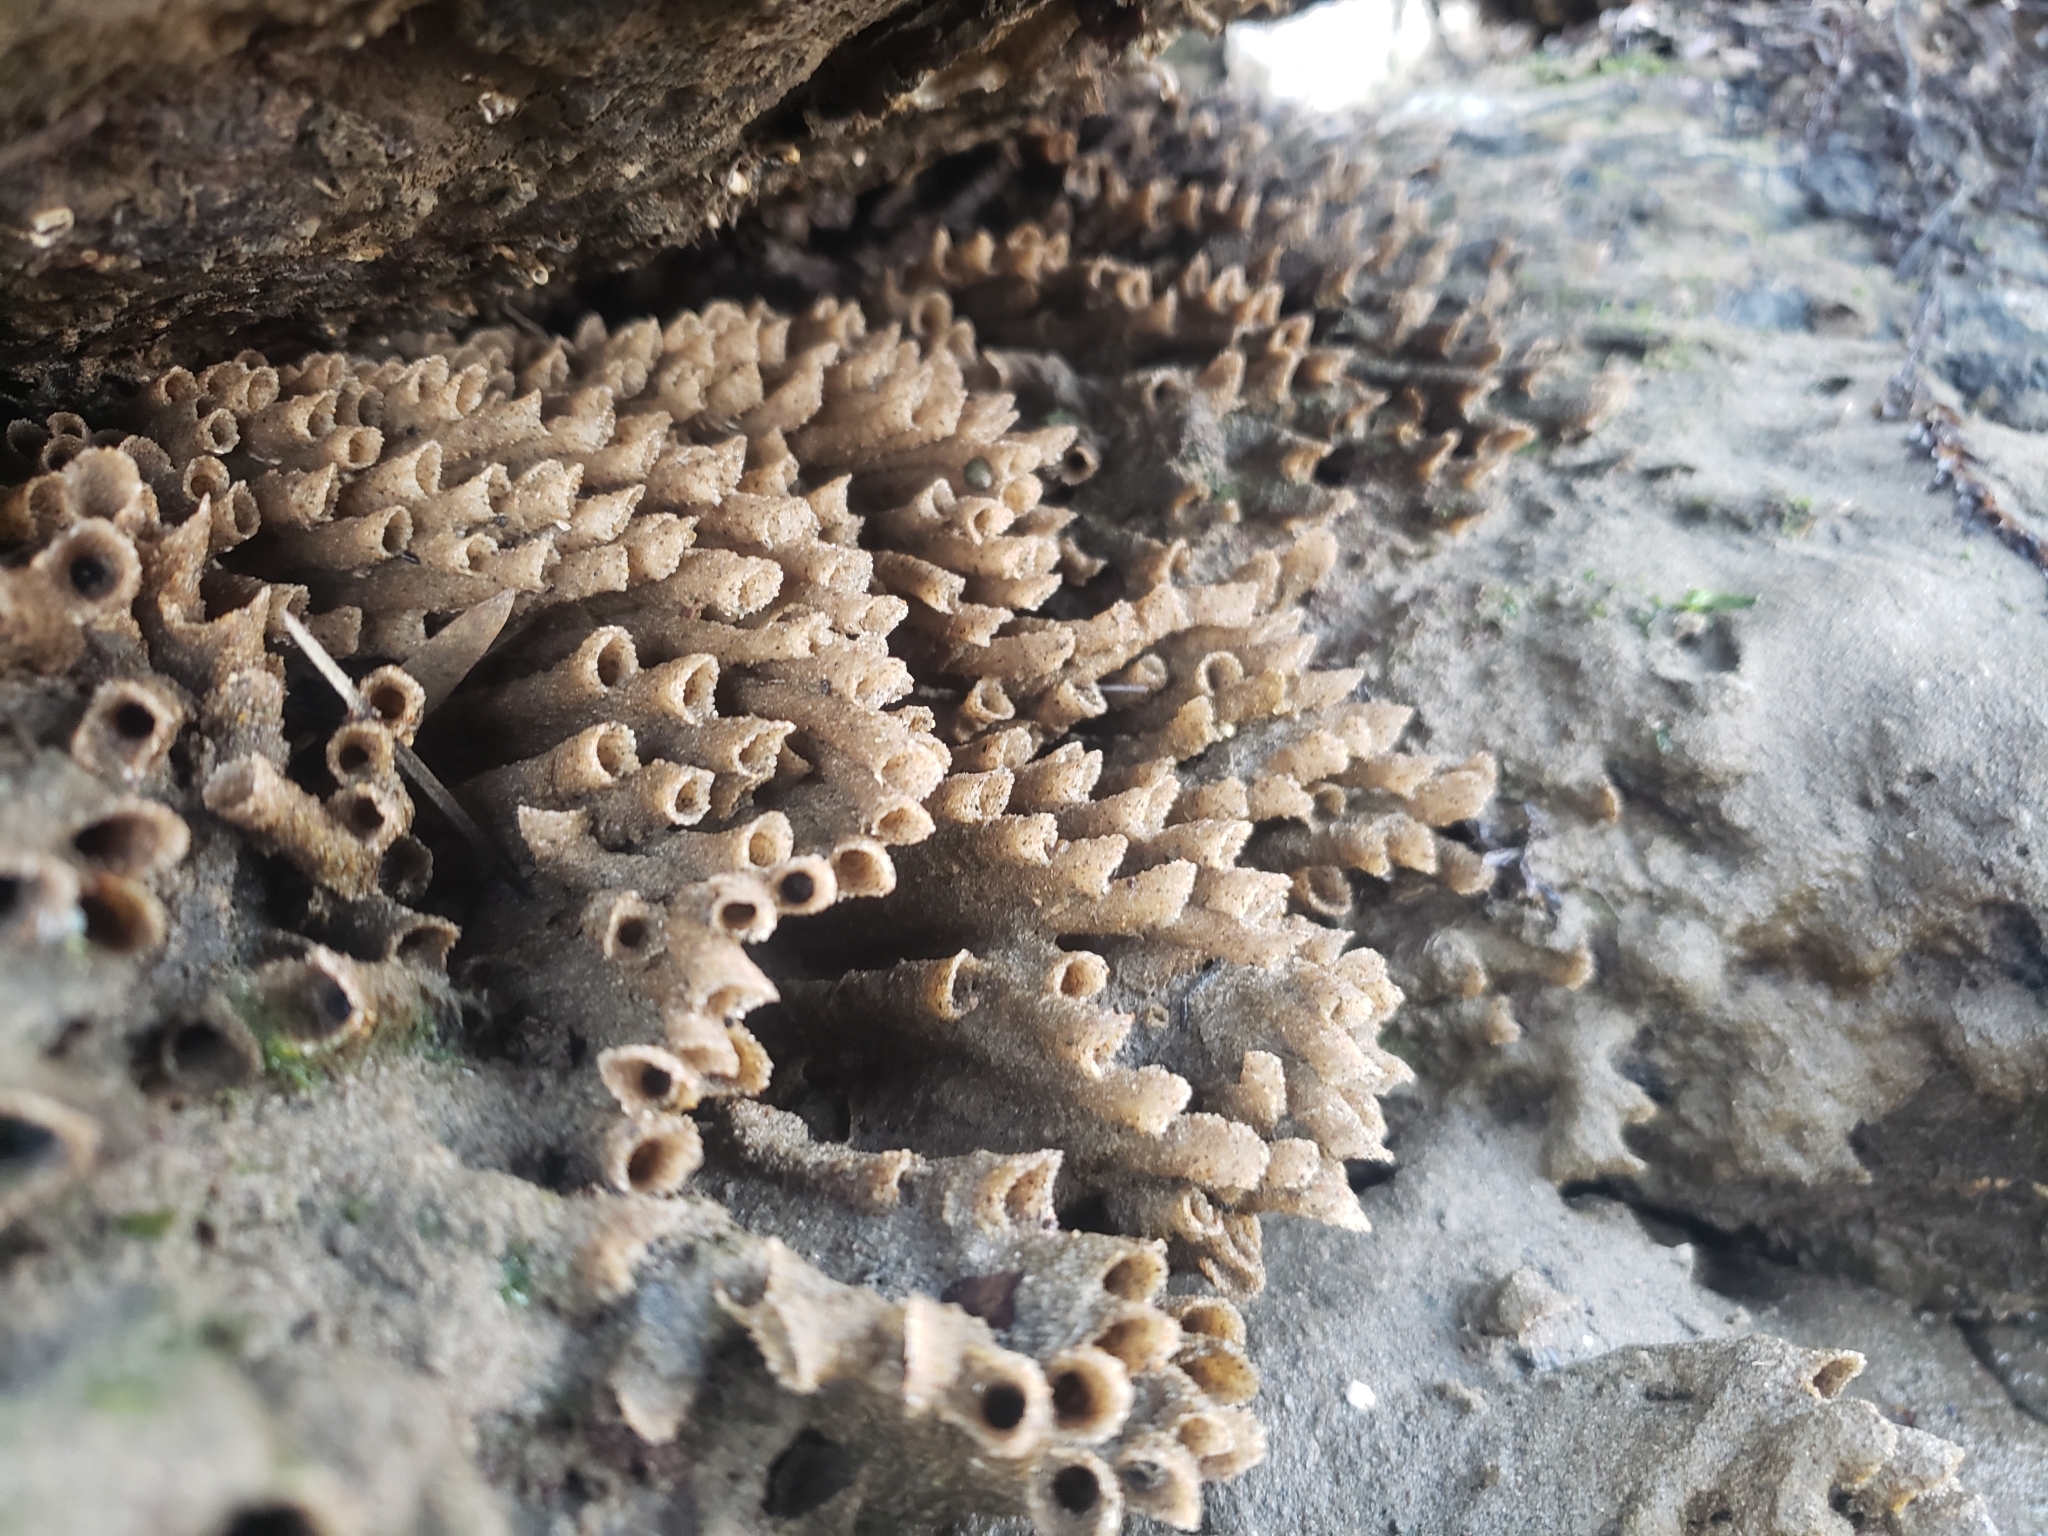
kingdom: Animalia
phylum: Annelida
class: Polychaeta
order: Sabellida
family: Sabellariidae
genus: Phragmatopoma
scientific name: Phragmatopoma californica
